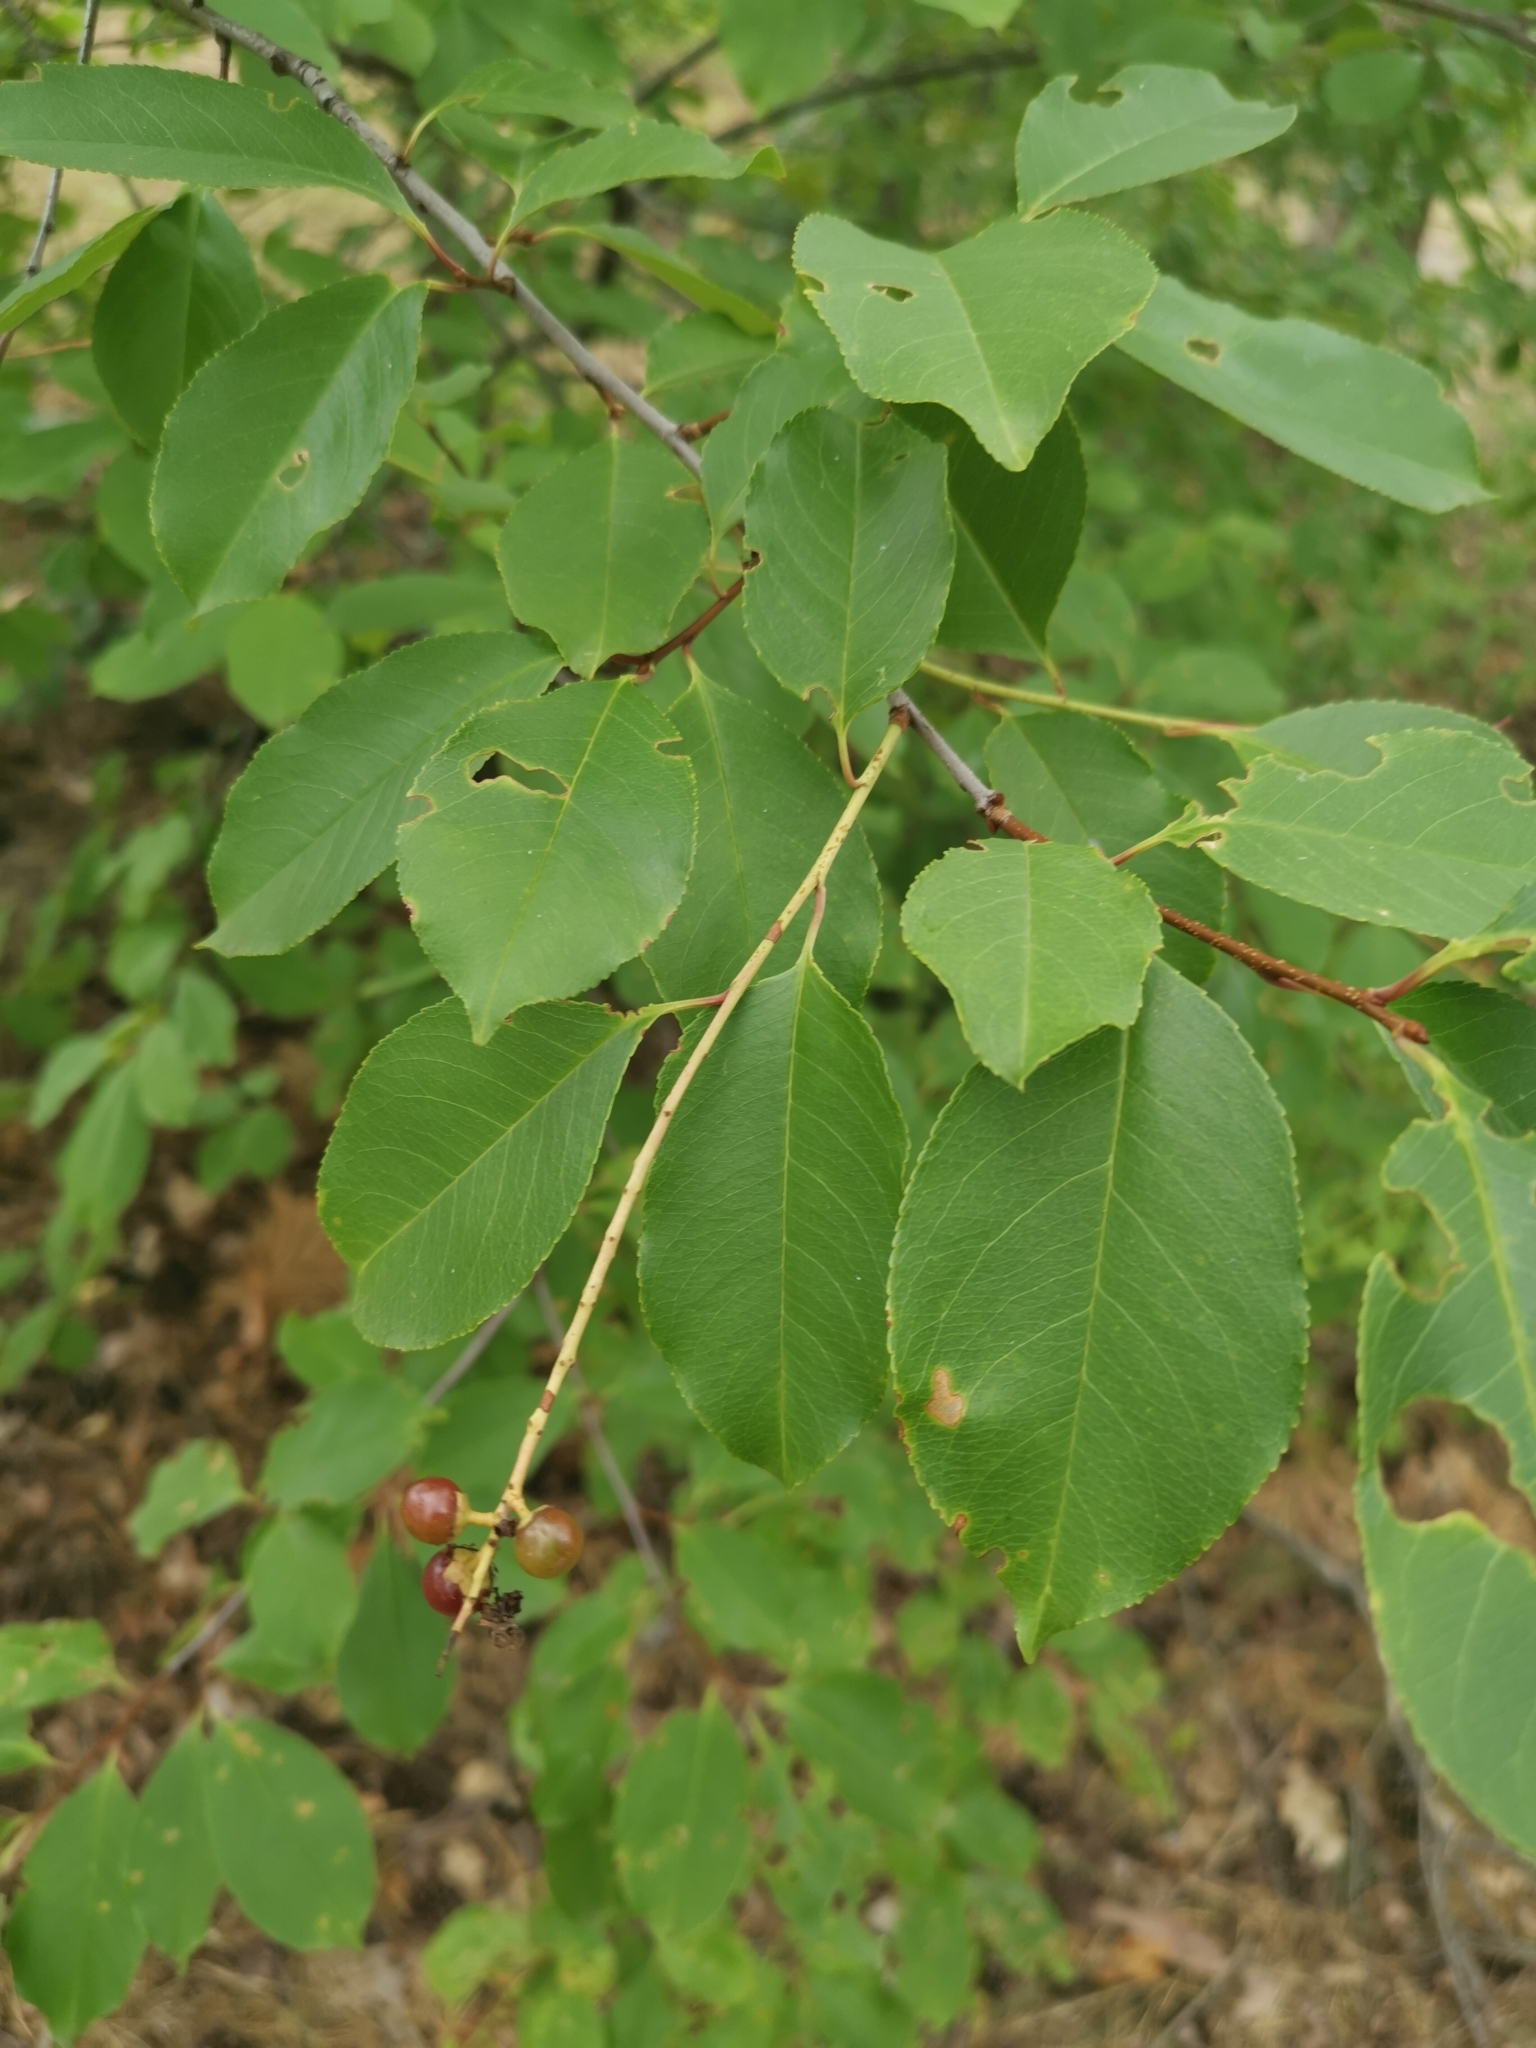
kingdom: Plantae
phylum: Tracheophyta
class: Magnoliopsida
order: Rosales
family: Rosaceae
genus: Prunus
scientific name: Prunus serotina
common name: Black cherry
